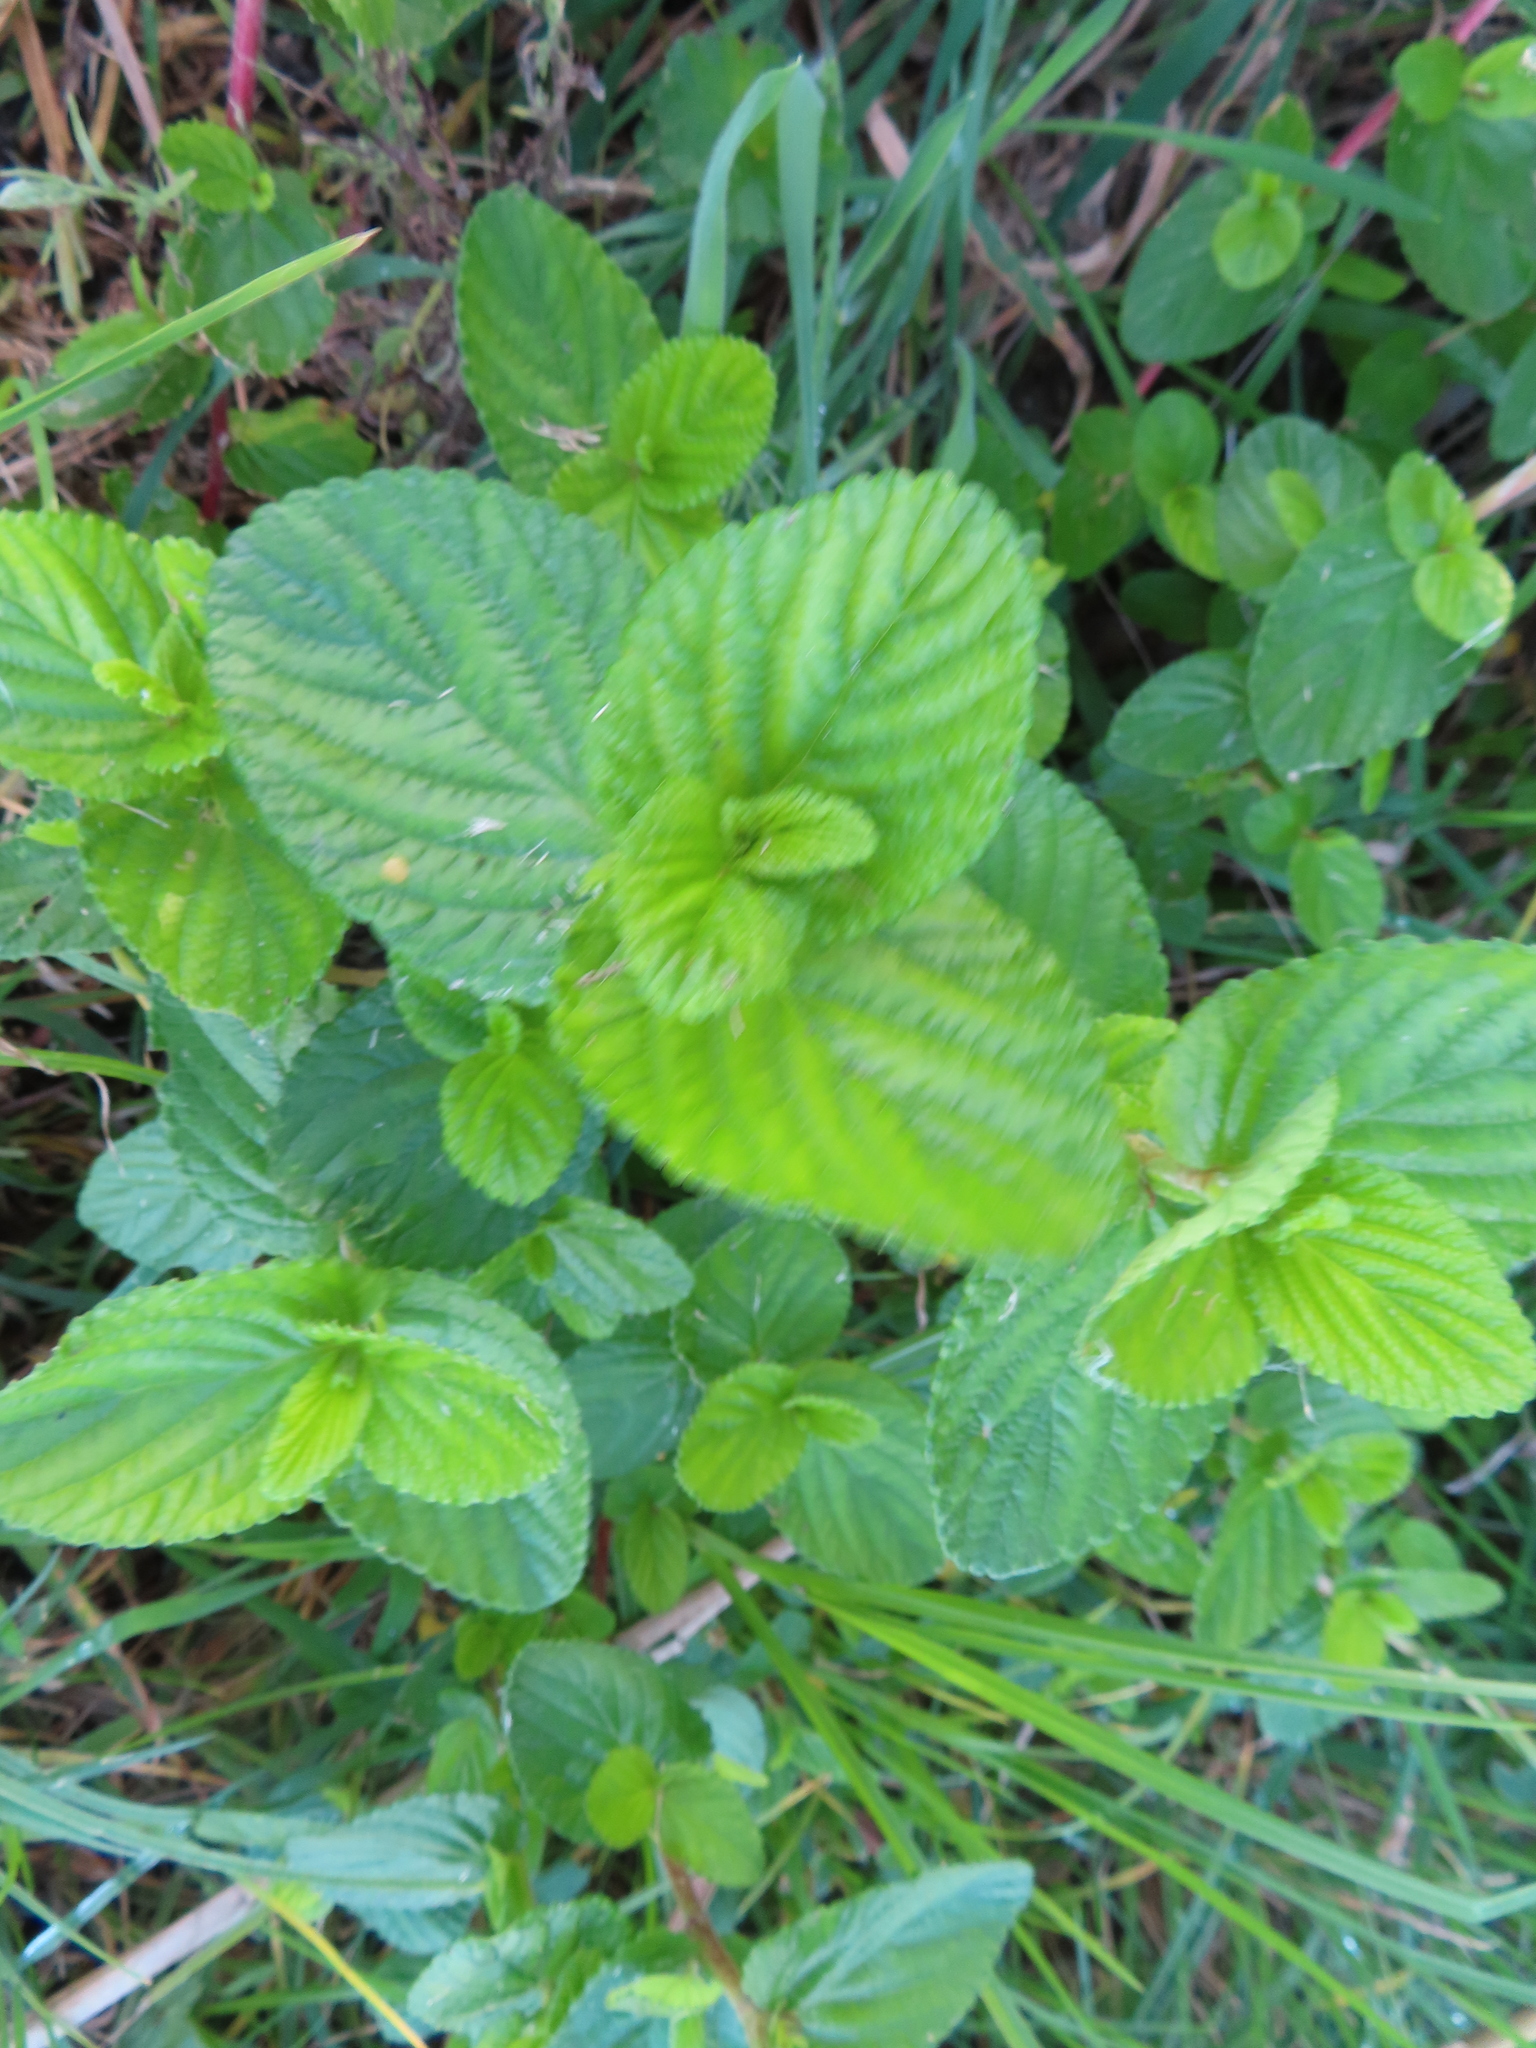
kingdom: Plantae
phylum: Tracheophyta
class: Magnoliopsida
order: Rosales
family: Rosaceae
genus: Cliffortia
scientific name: Cliffortia odorata
